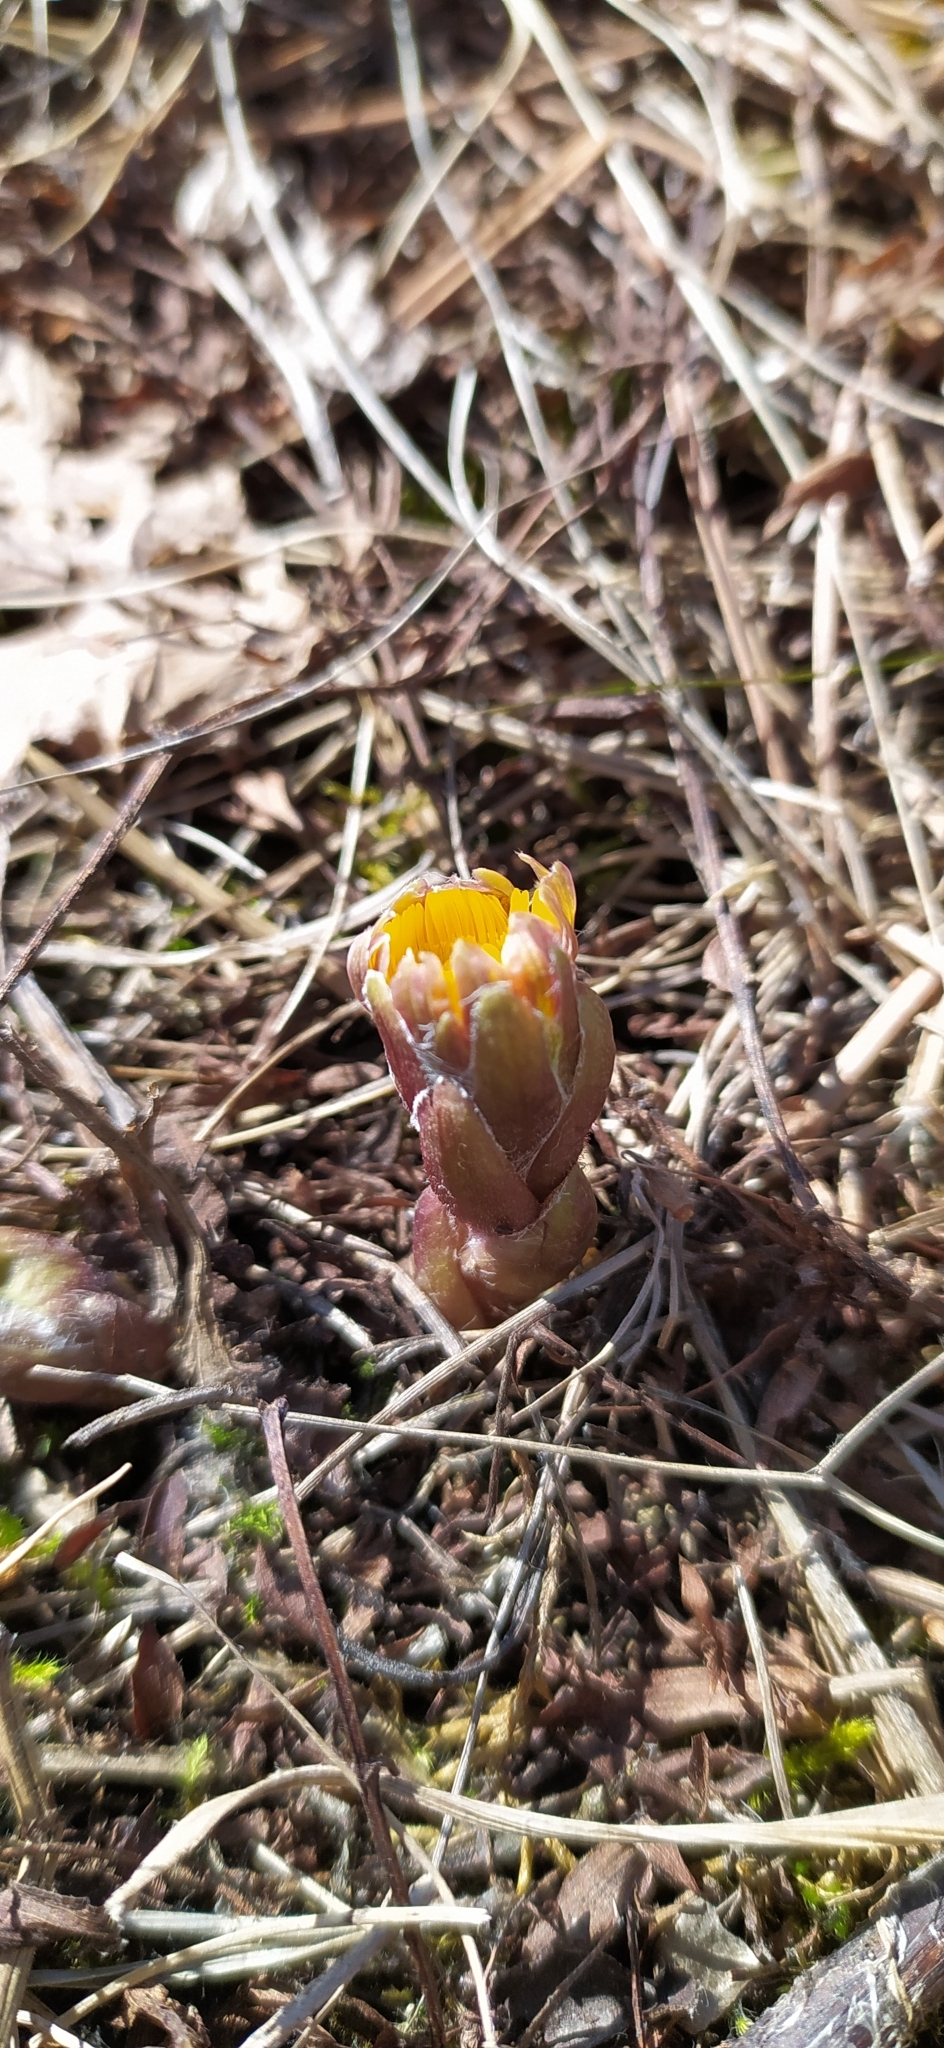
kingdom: Plantae
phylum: Tracheophyta
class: Magnoliopsida
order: Asterales
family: Asteraceae
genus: Tussilago
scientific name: Tussilago farfara
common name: Coltsfoot
